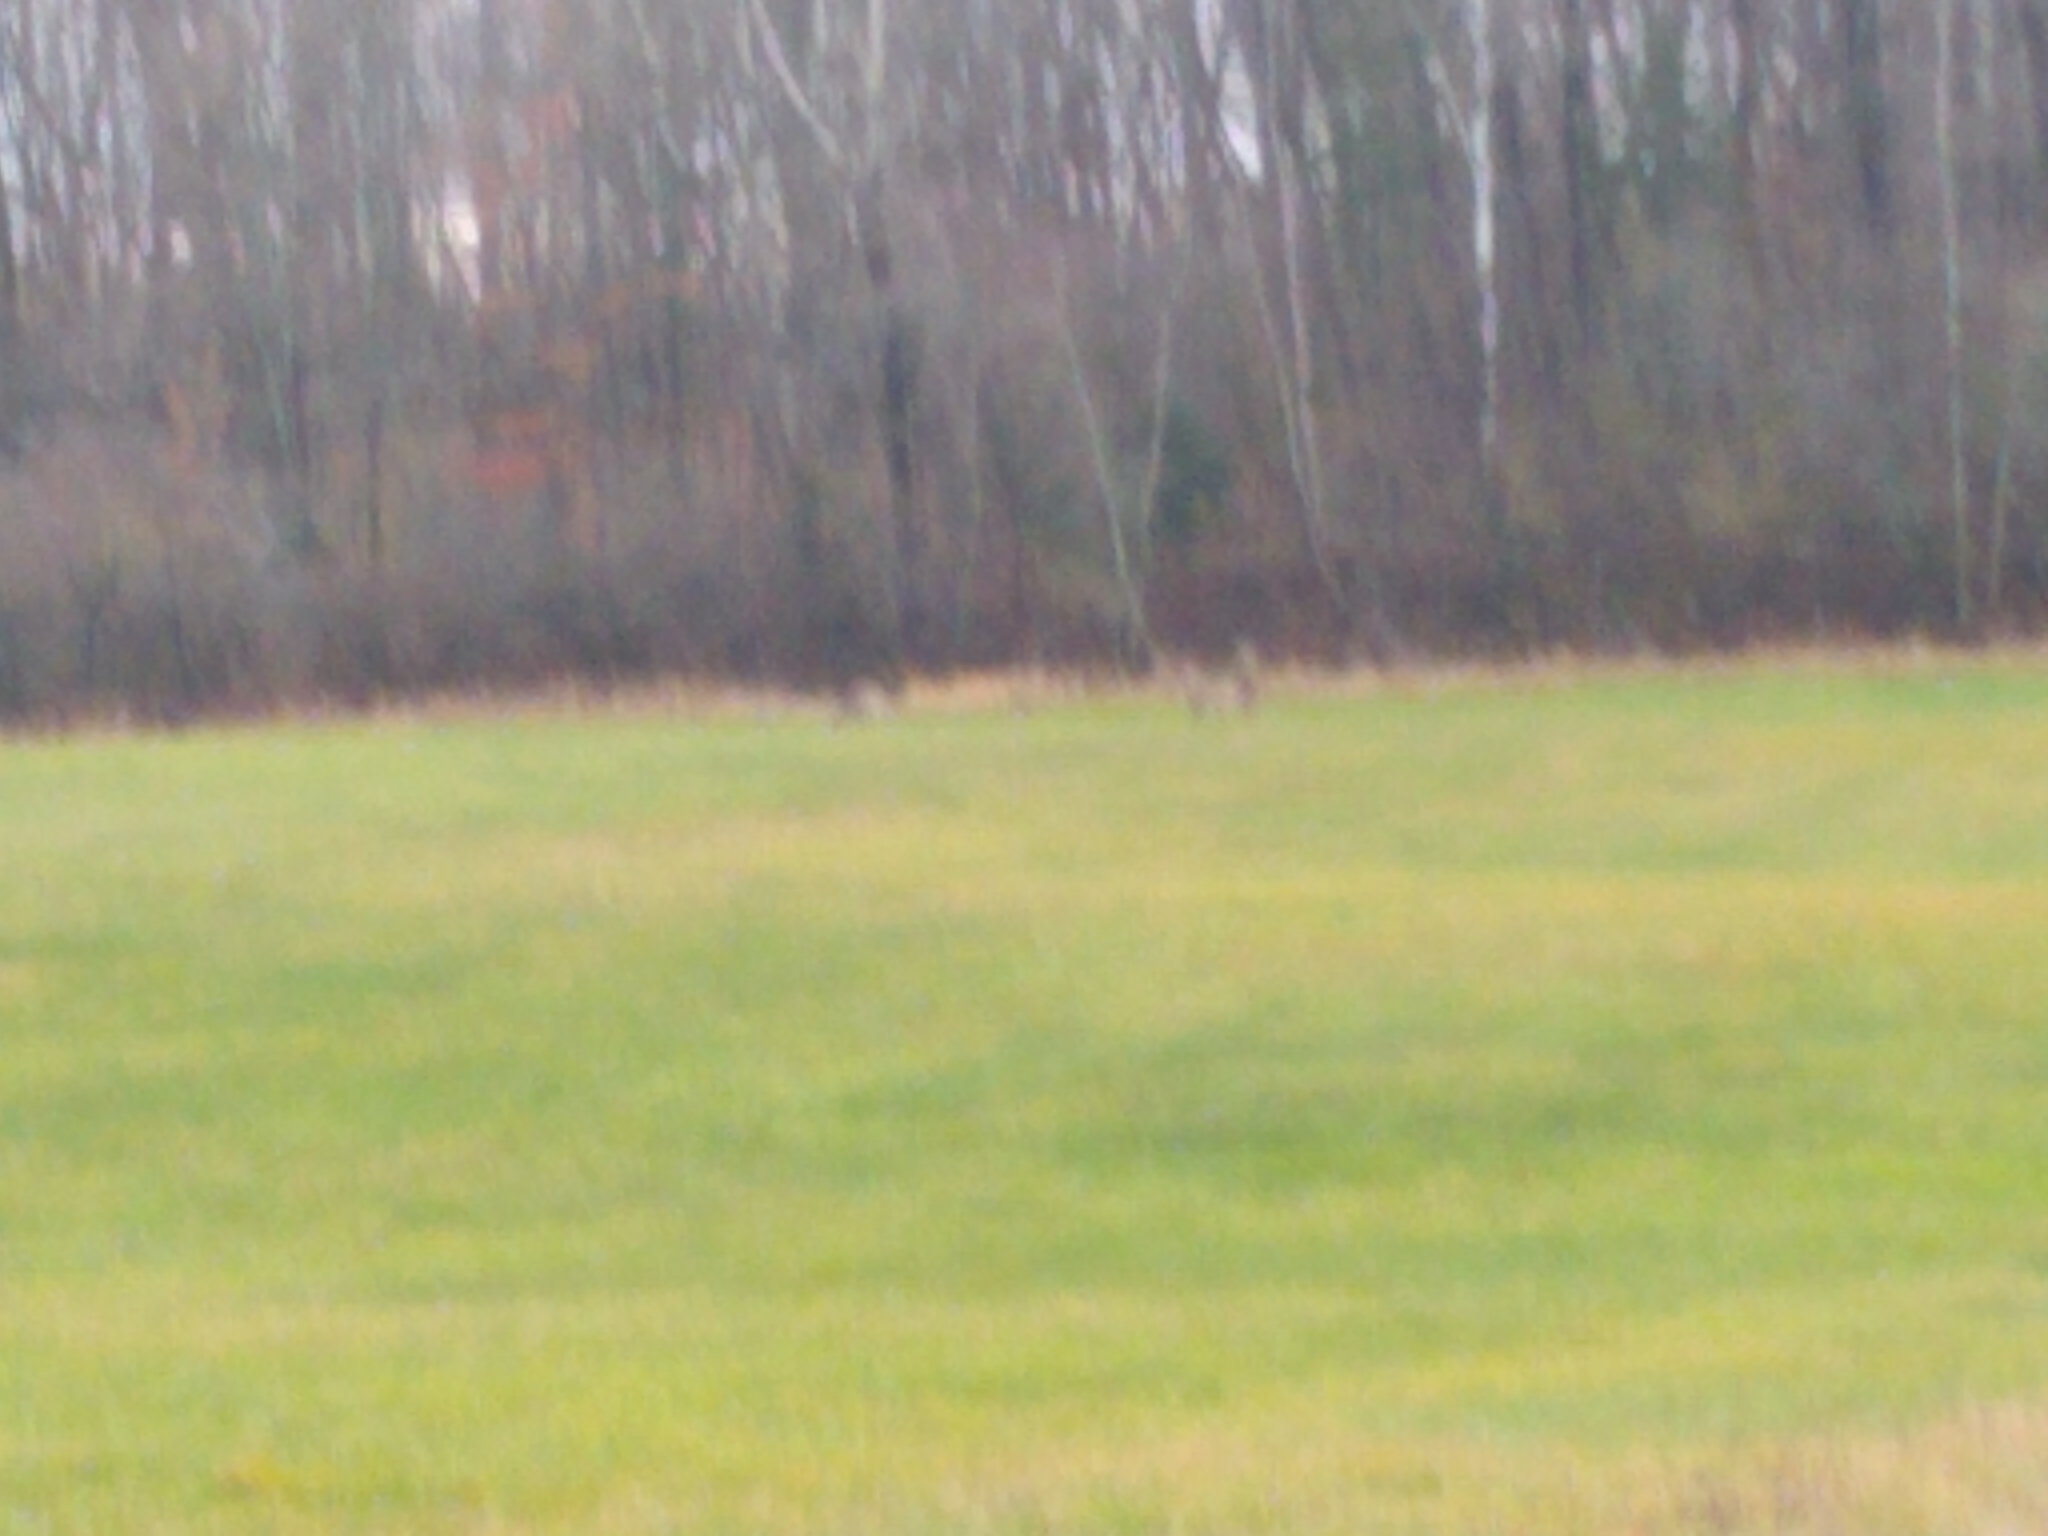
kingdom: Animalia
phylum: Chordata
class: Mammalia
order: Artiodactyla
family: Cervidae
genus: Odocoileus
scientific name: Odocoileus virginianus
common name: White-tailed deer
